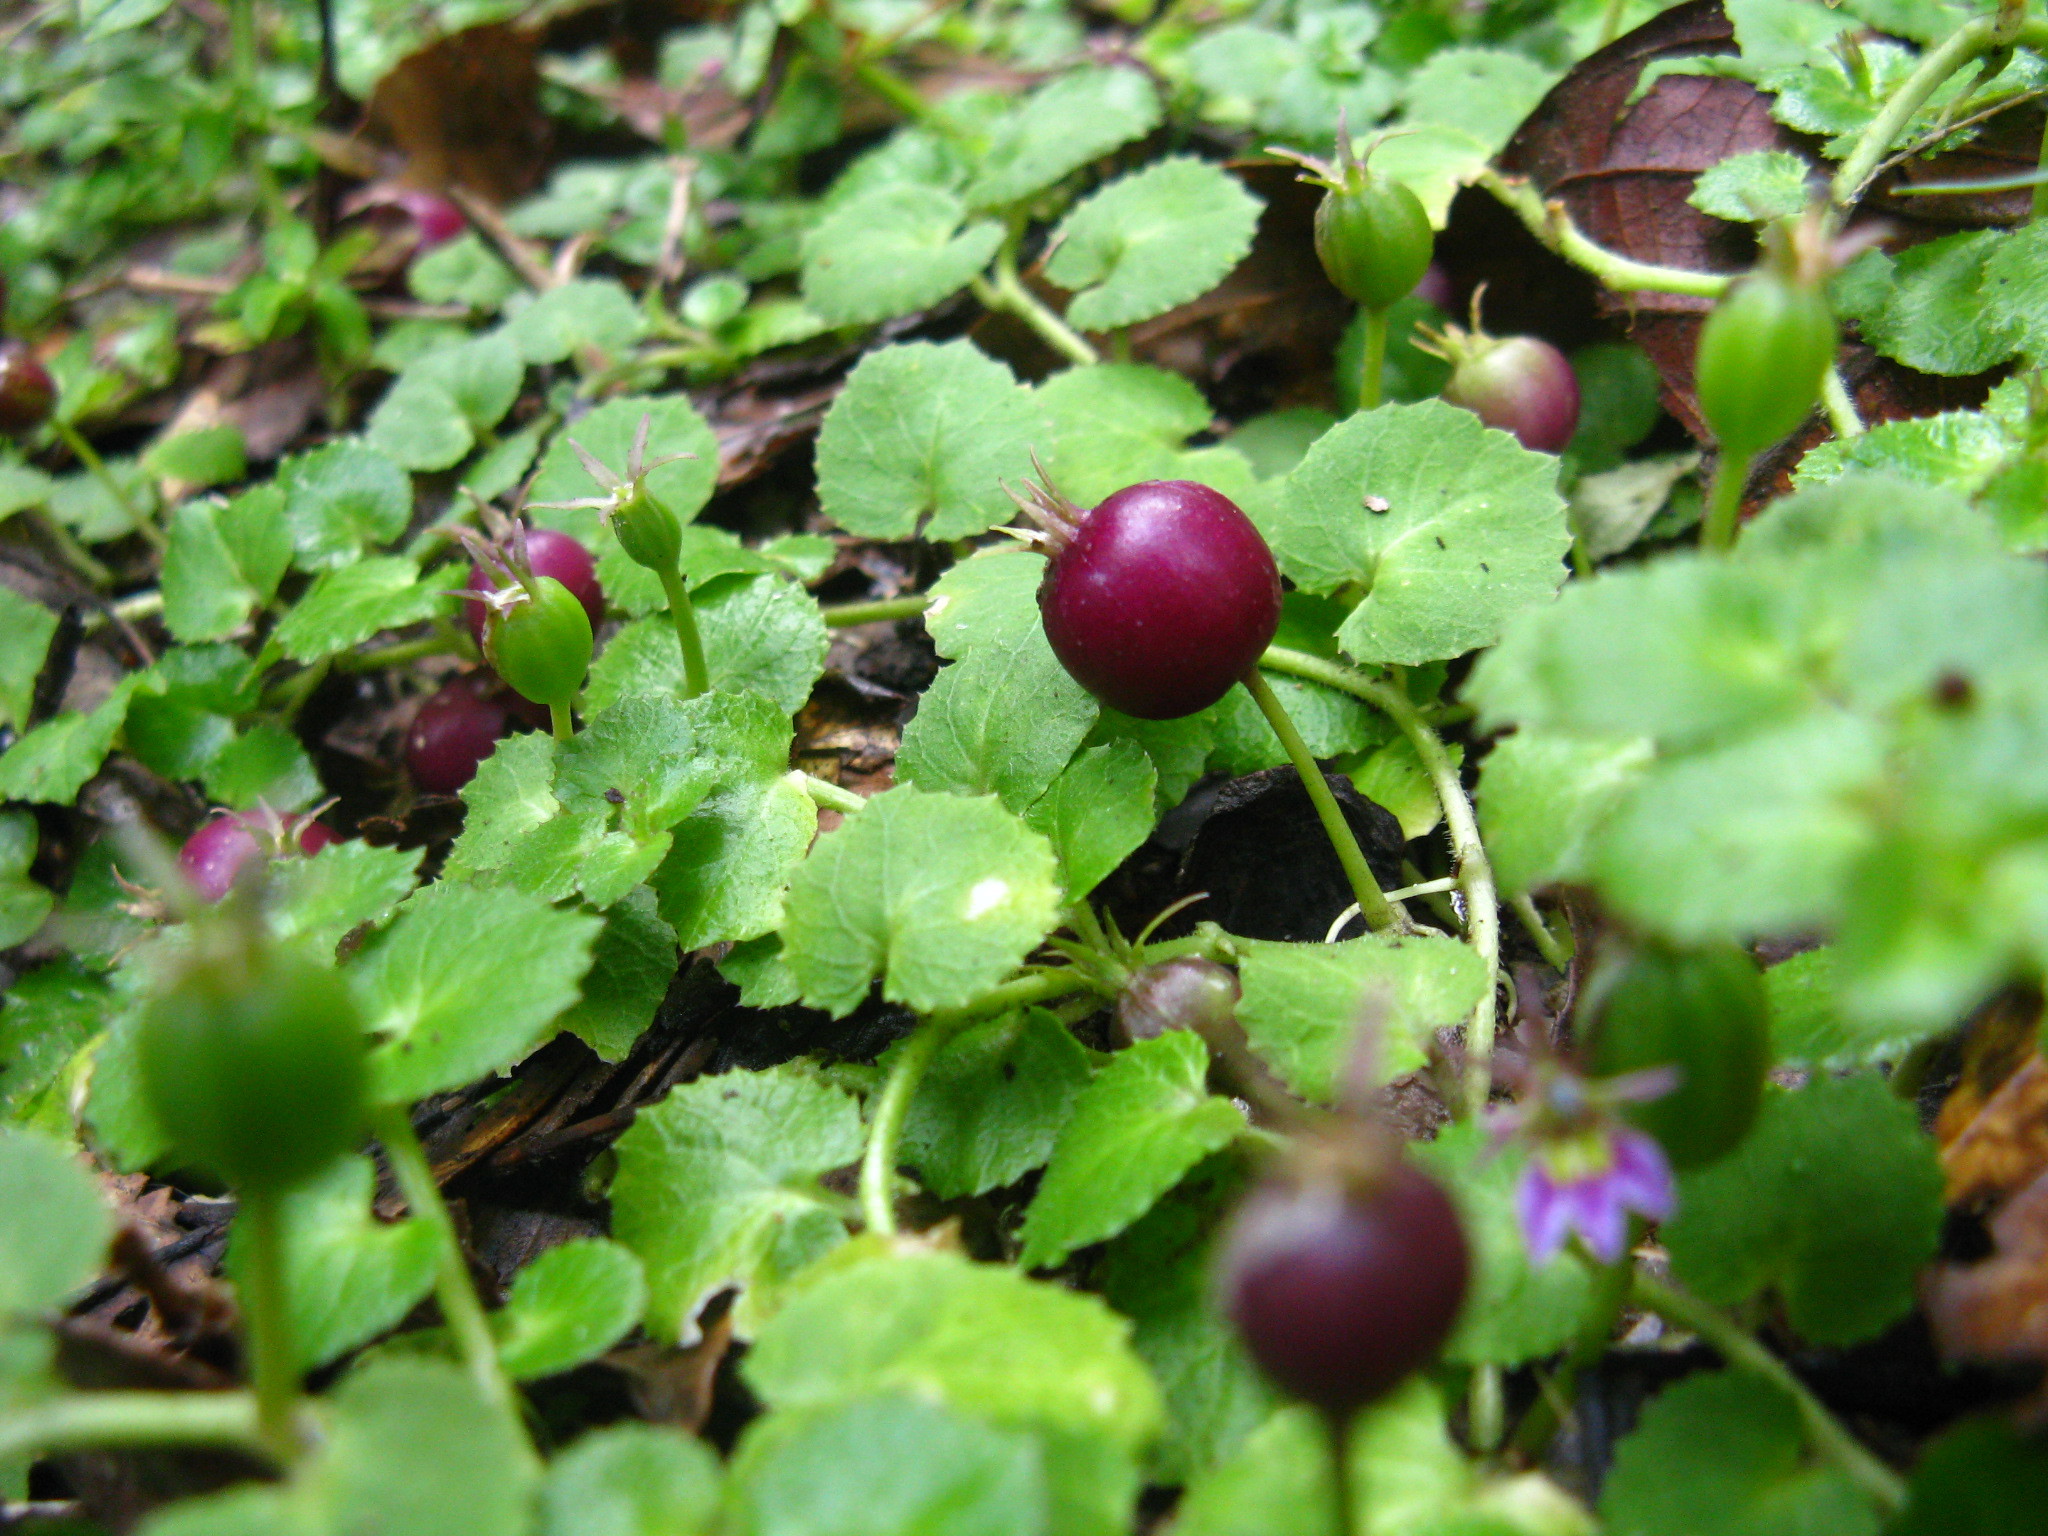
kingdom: Plantae
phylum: Tracheophyta
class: Magnoliopsida
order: Asterales
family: Campanulaceae
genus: Lobelia
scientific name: Lobelia nummularia
